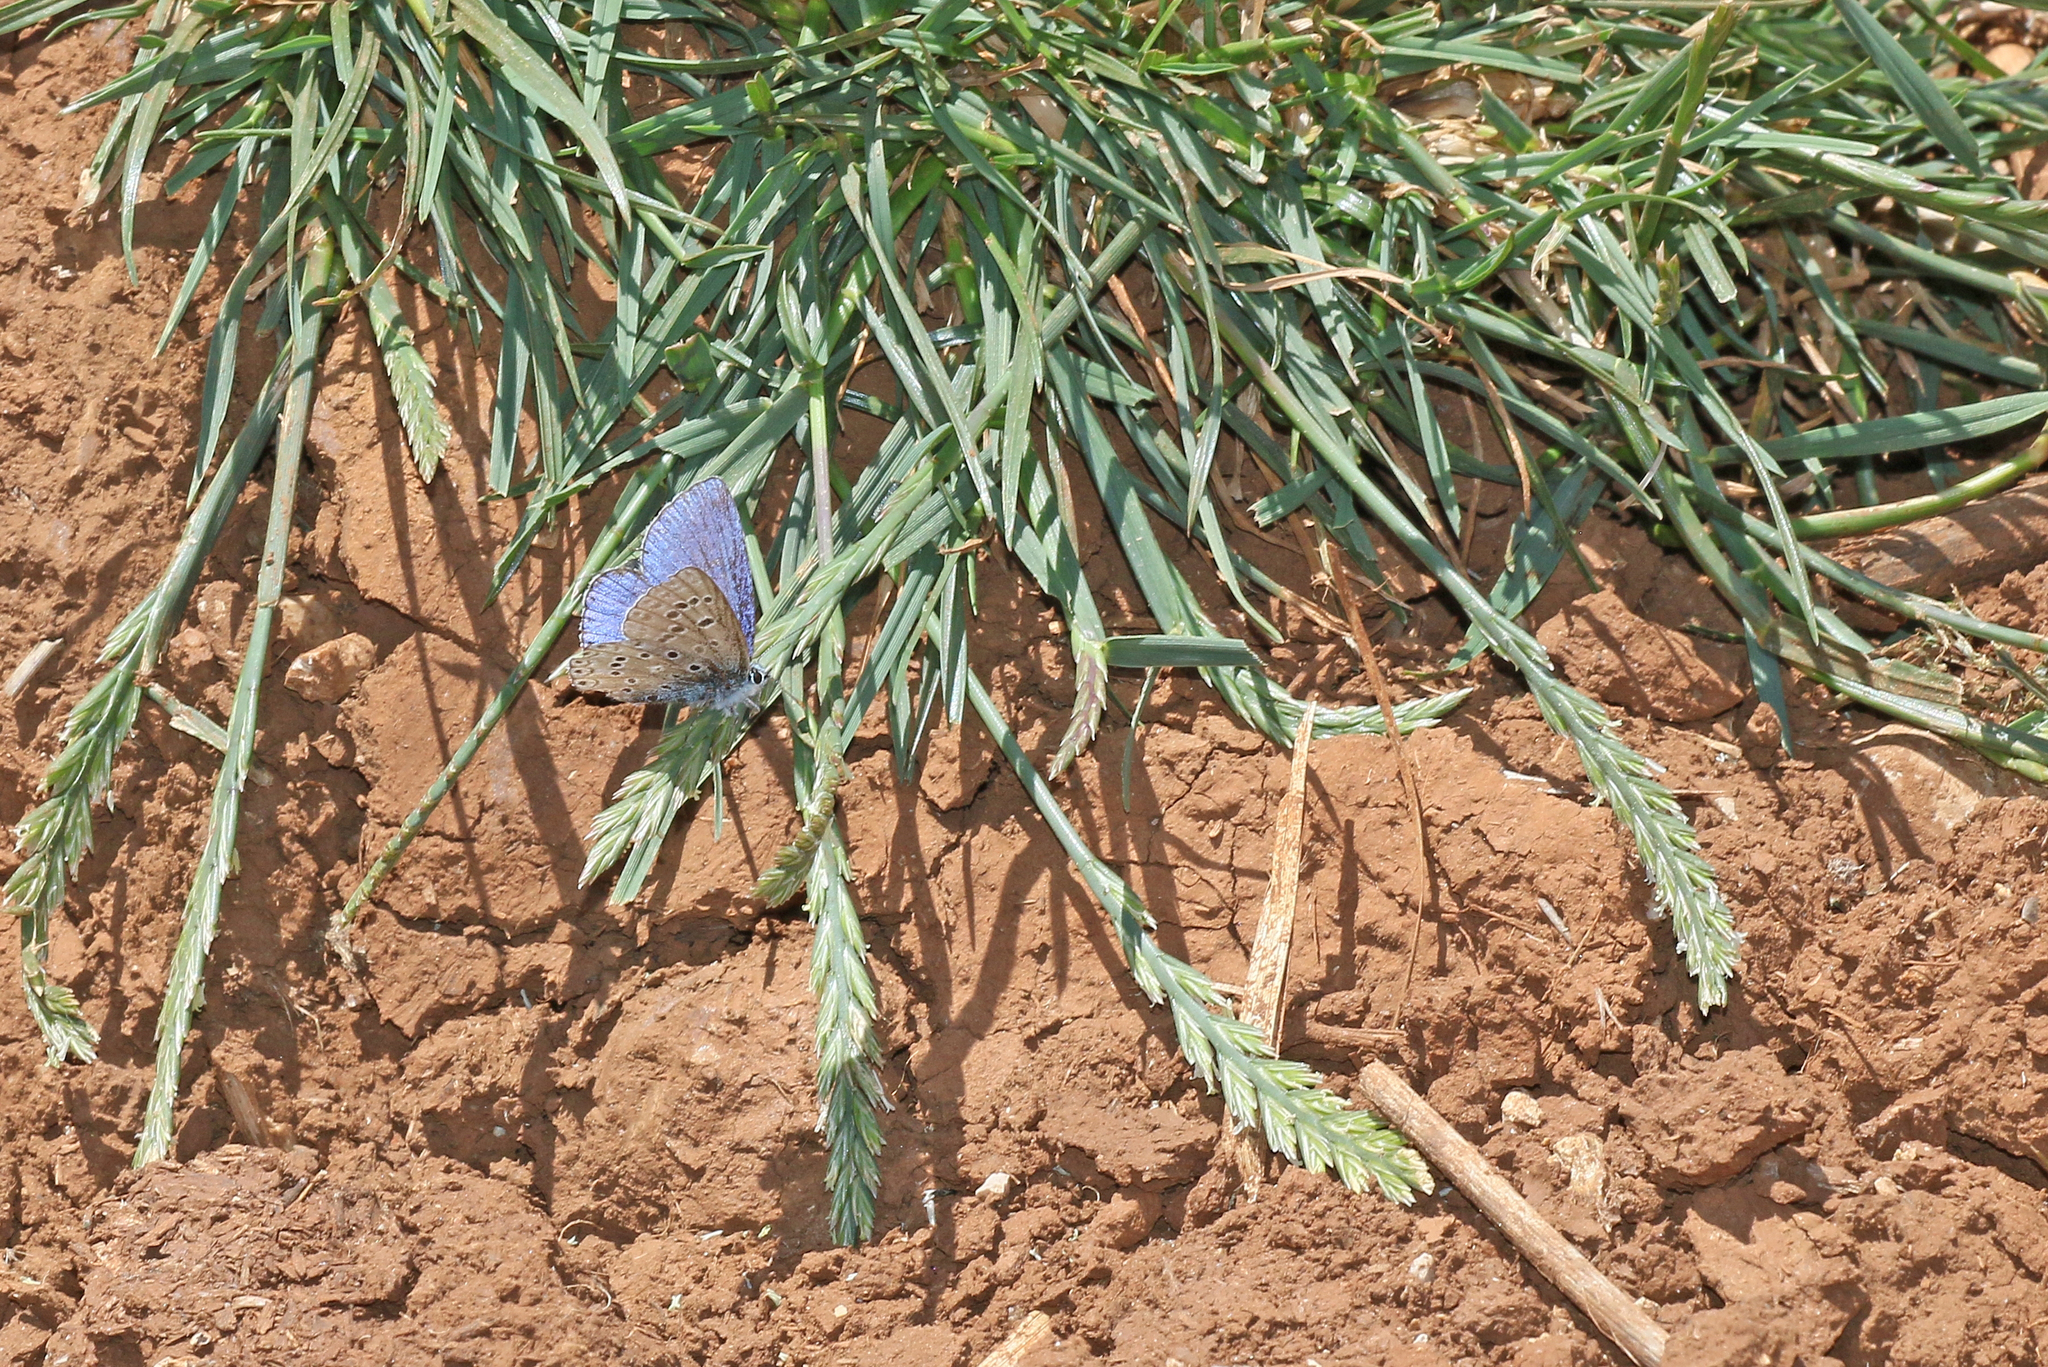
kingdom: Animalia
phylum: Arthropoda
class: Insecta
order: Lepidoptera
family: Lycaenidae
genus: Lysandra
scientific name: Lysandra bellargus
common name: Adonis blue
